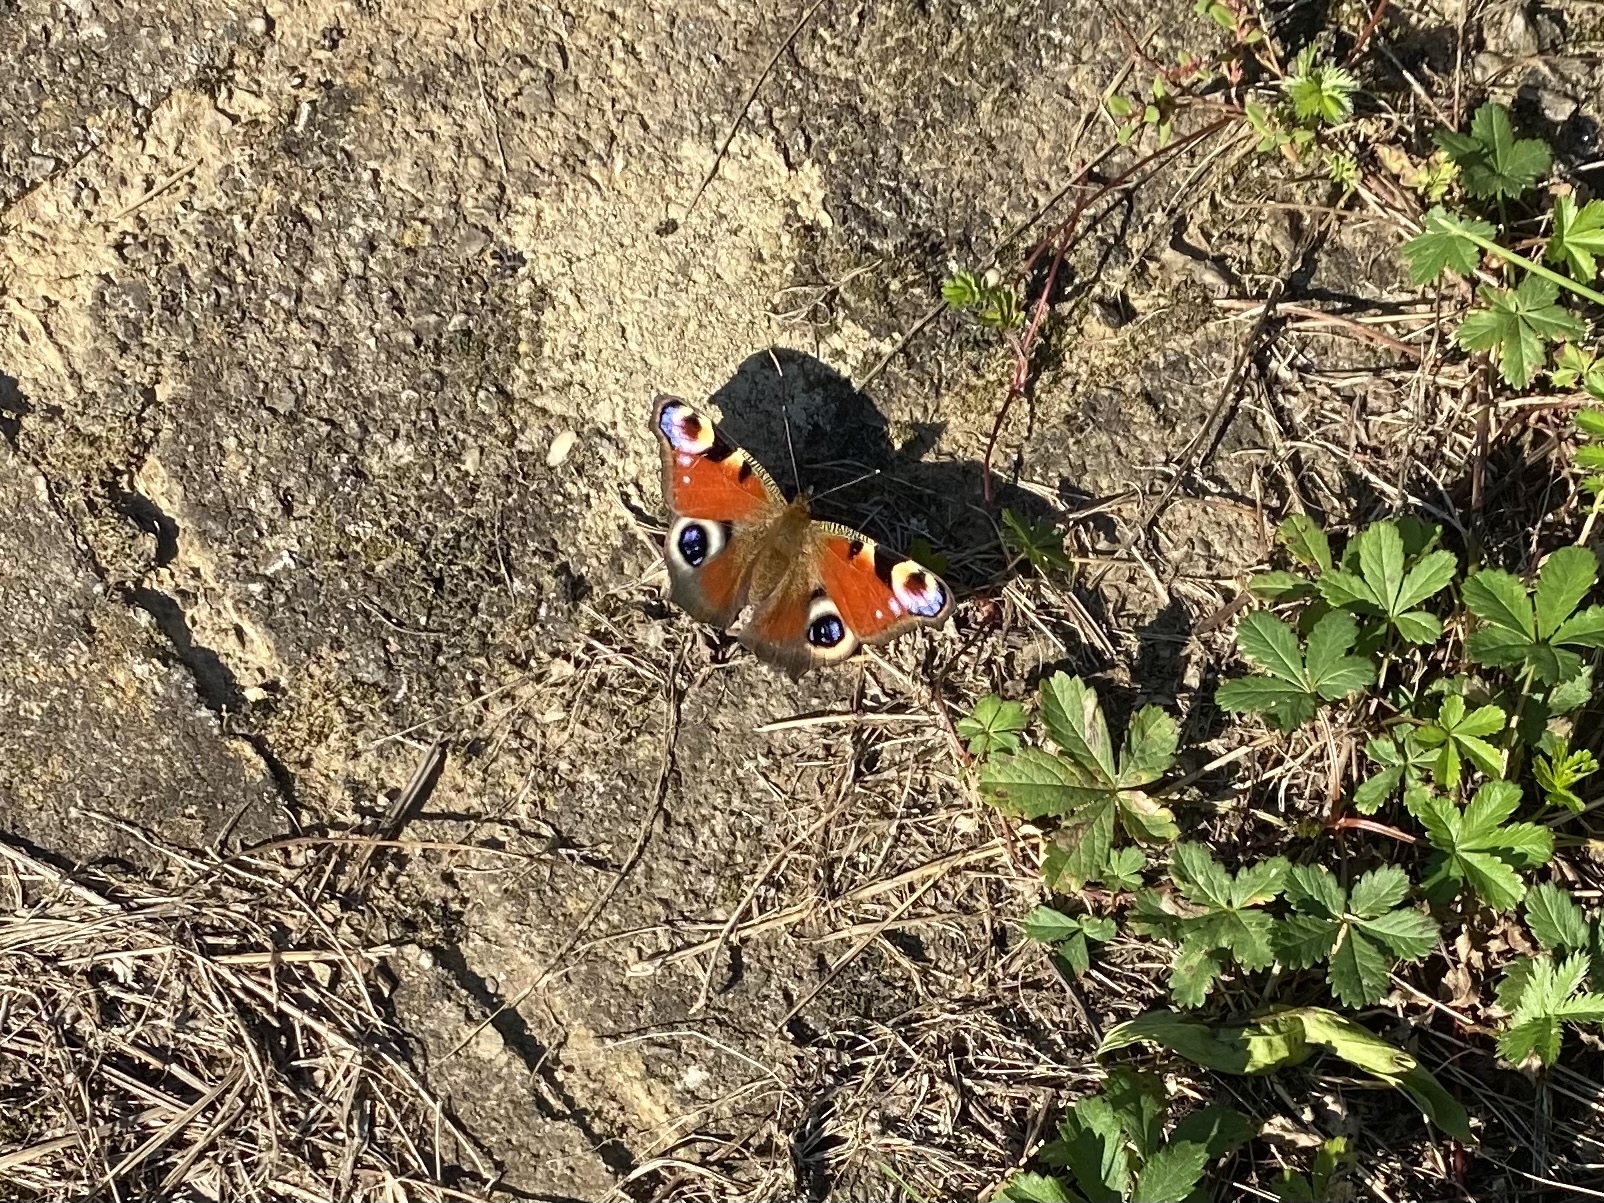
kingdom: Animalia
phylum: Arthropoda
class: Insecta
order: Lepidoptera
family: Nymphalidae
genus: Aglais
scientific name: Aglais io
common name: Peacock
